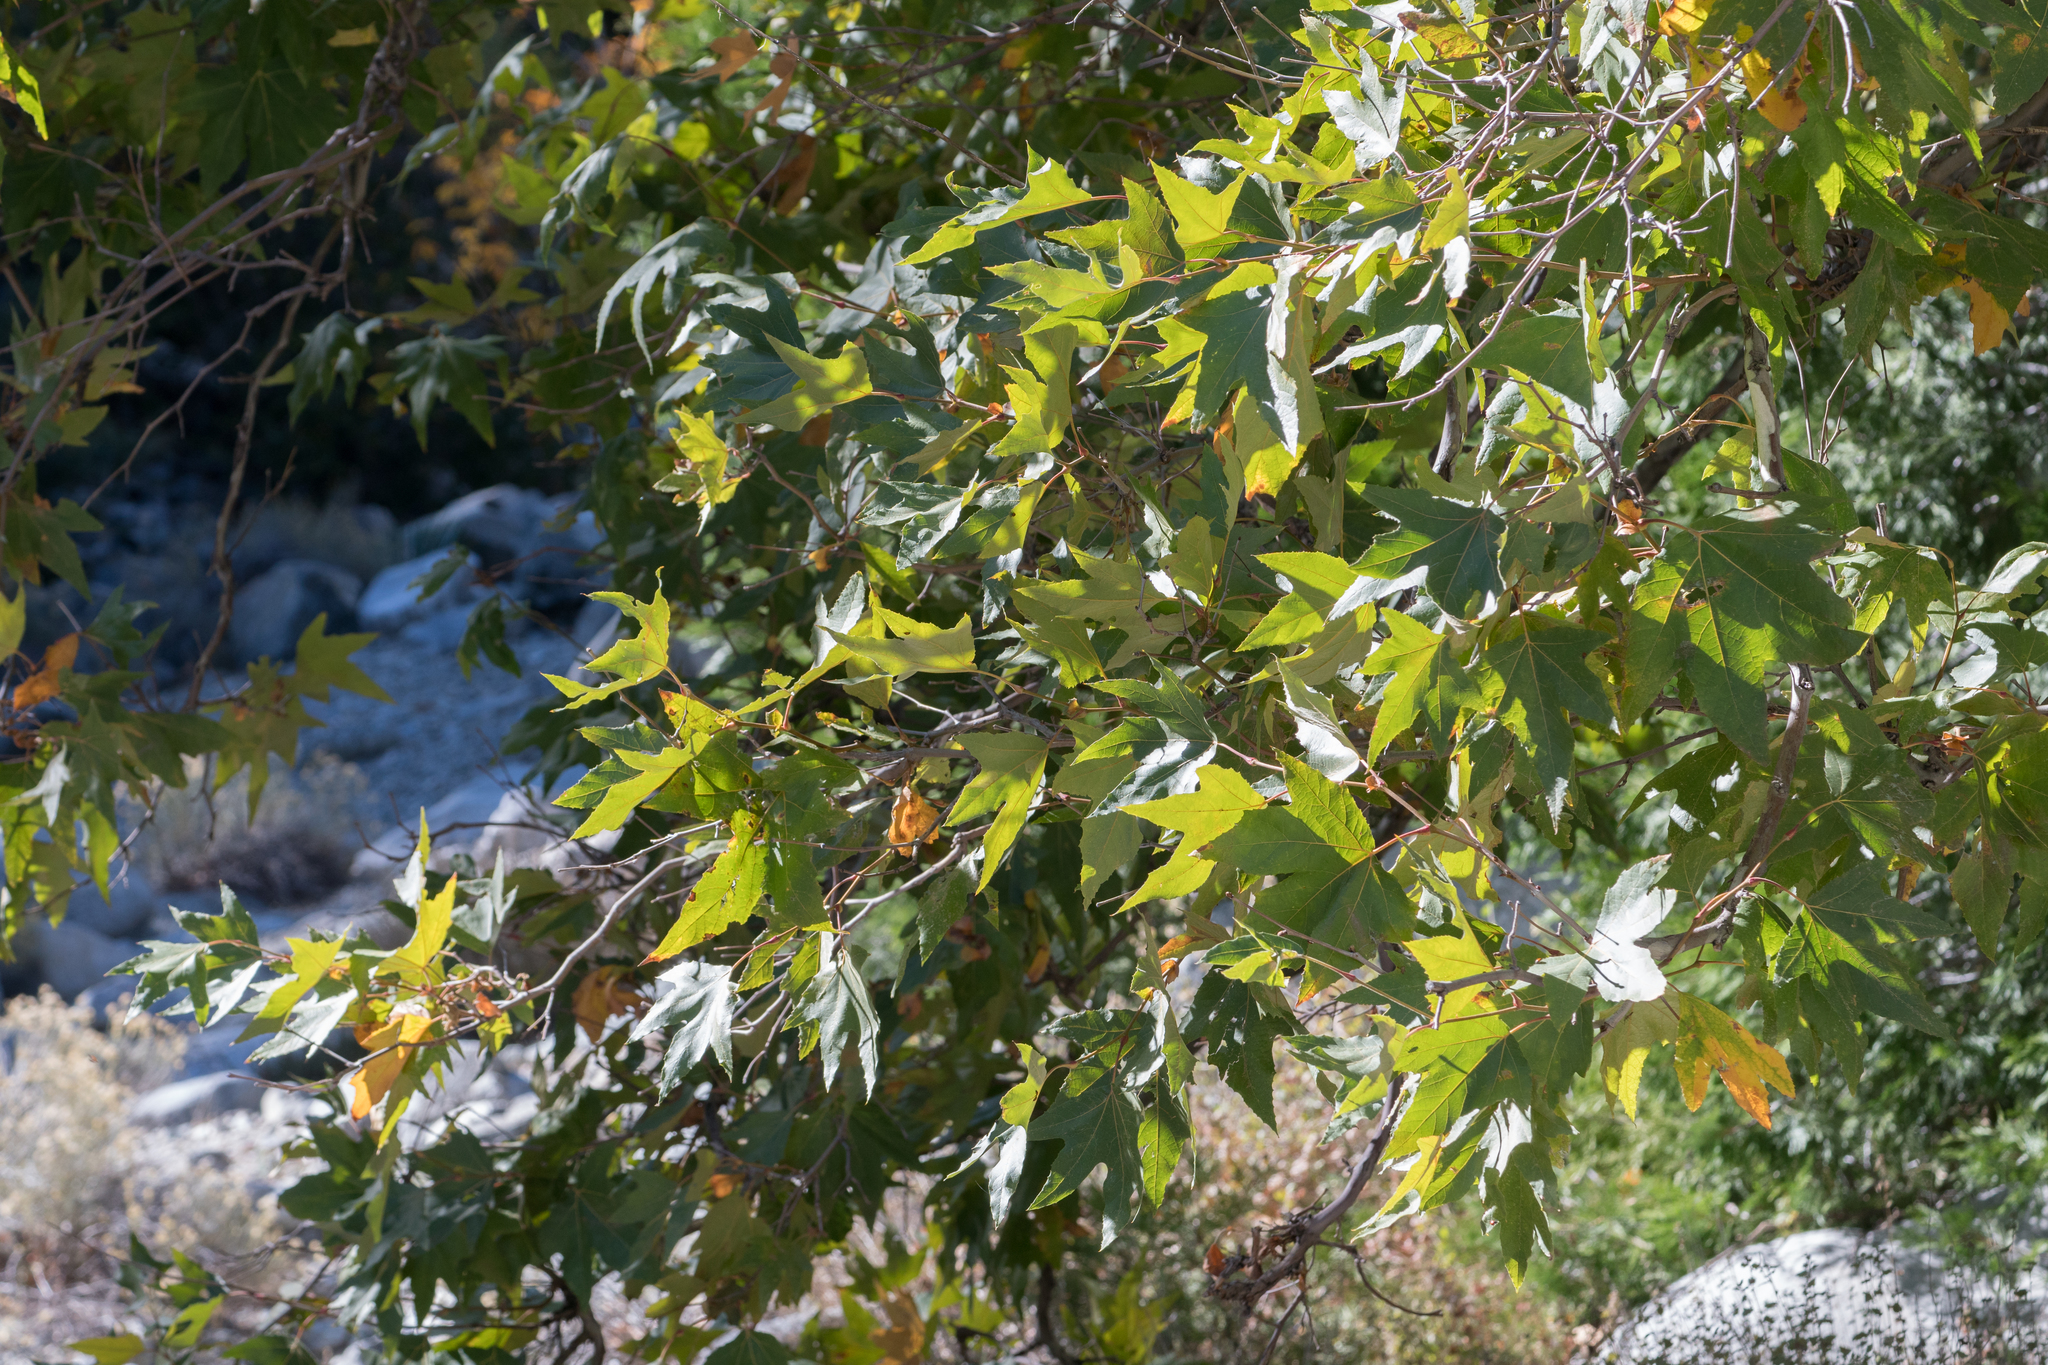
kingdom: Plantae
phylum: Tracheophyta
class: Magnoliopsida
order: Proteales
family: Platanaceae
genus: Platanus
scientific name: Platanus racemosa
